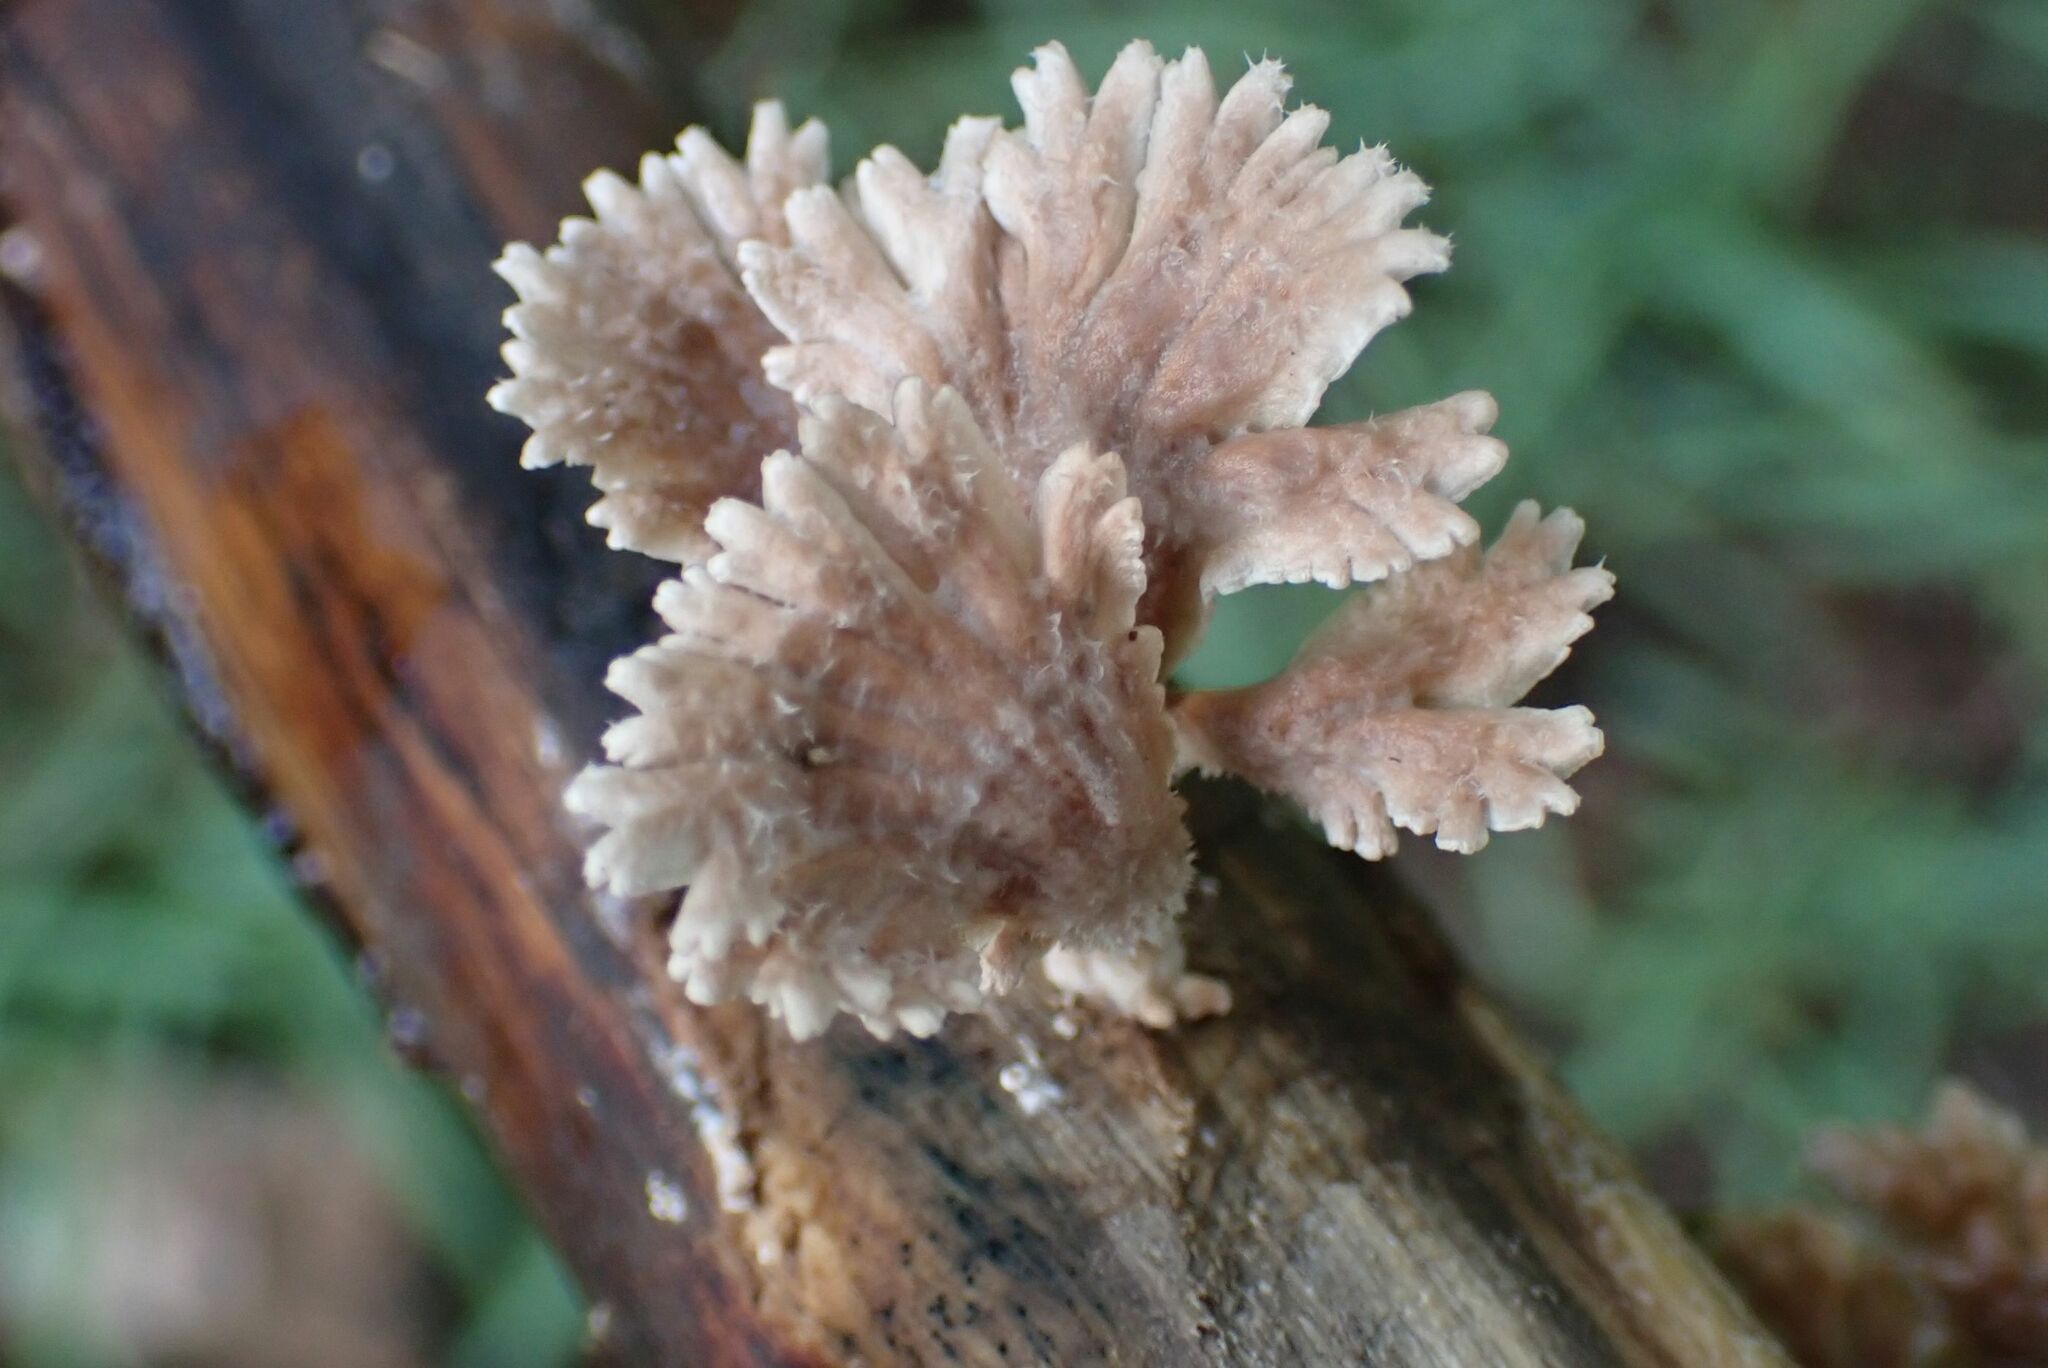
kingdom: Fungi
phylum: Basidiomycota
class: Agaricomycetes
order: Agaricales
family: Schizophyllaceae
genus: Schizophyllum
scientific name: Schizophyllum commune
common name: Common porecrust
